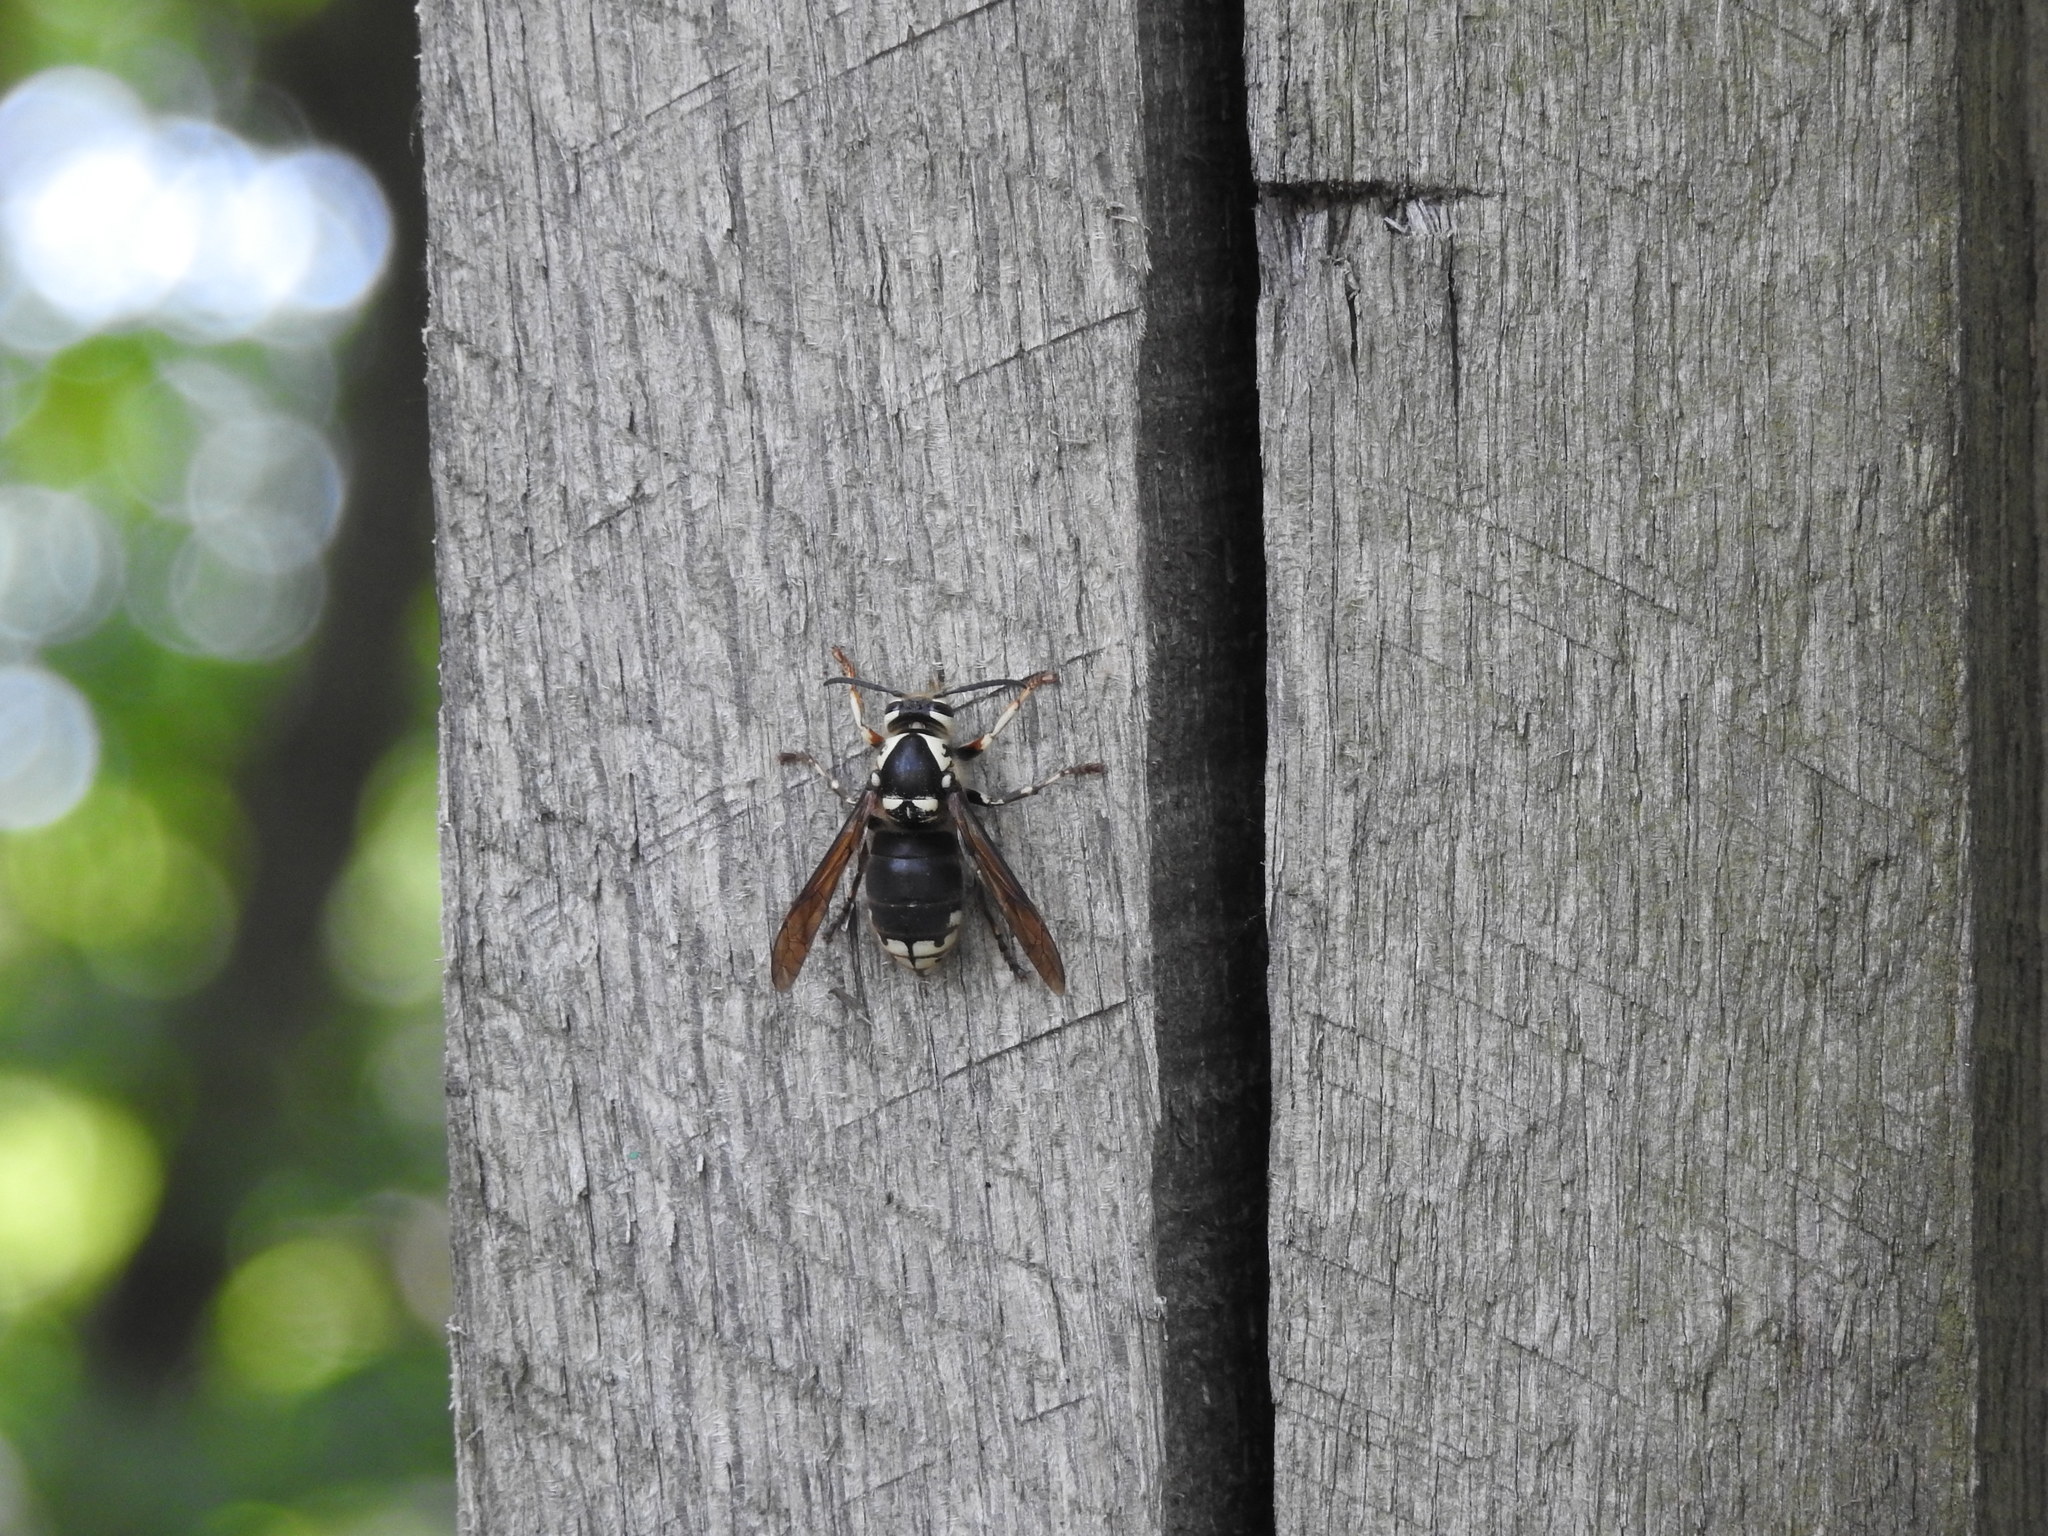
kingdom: Animalia
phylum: Arthropoda
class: Insecta
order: Hymenoptera
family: Vespidae
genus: Dolichovespula
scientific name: Dolichovespula maculata
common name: Bald-faced hornet
